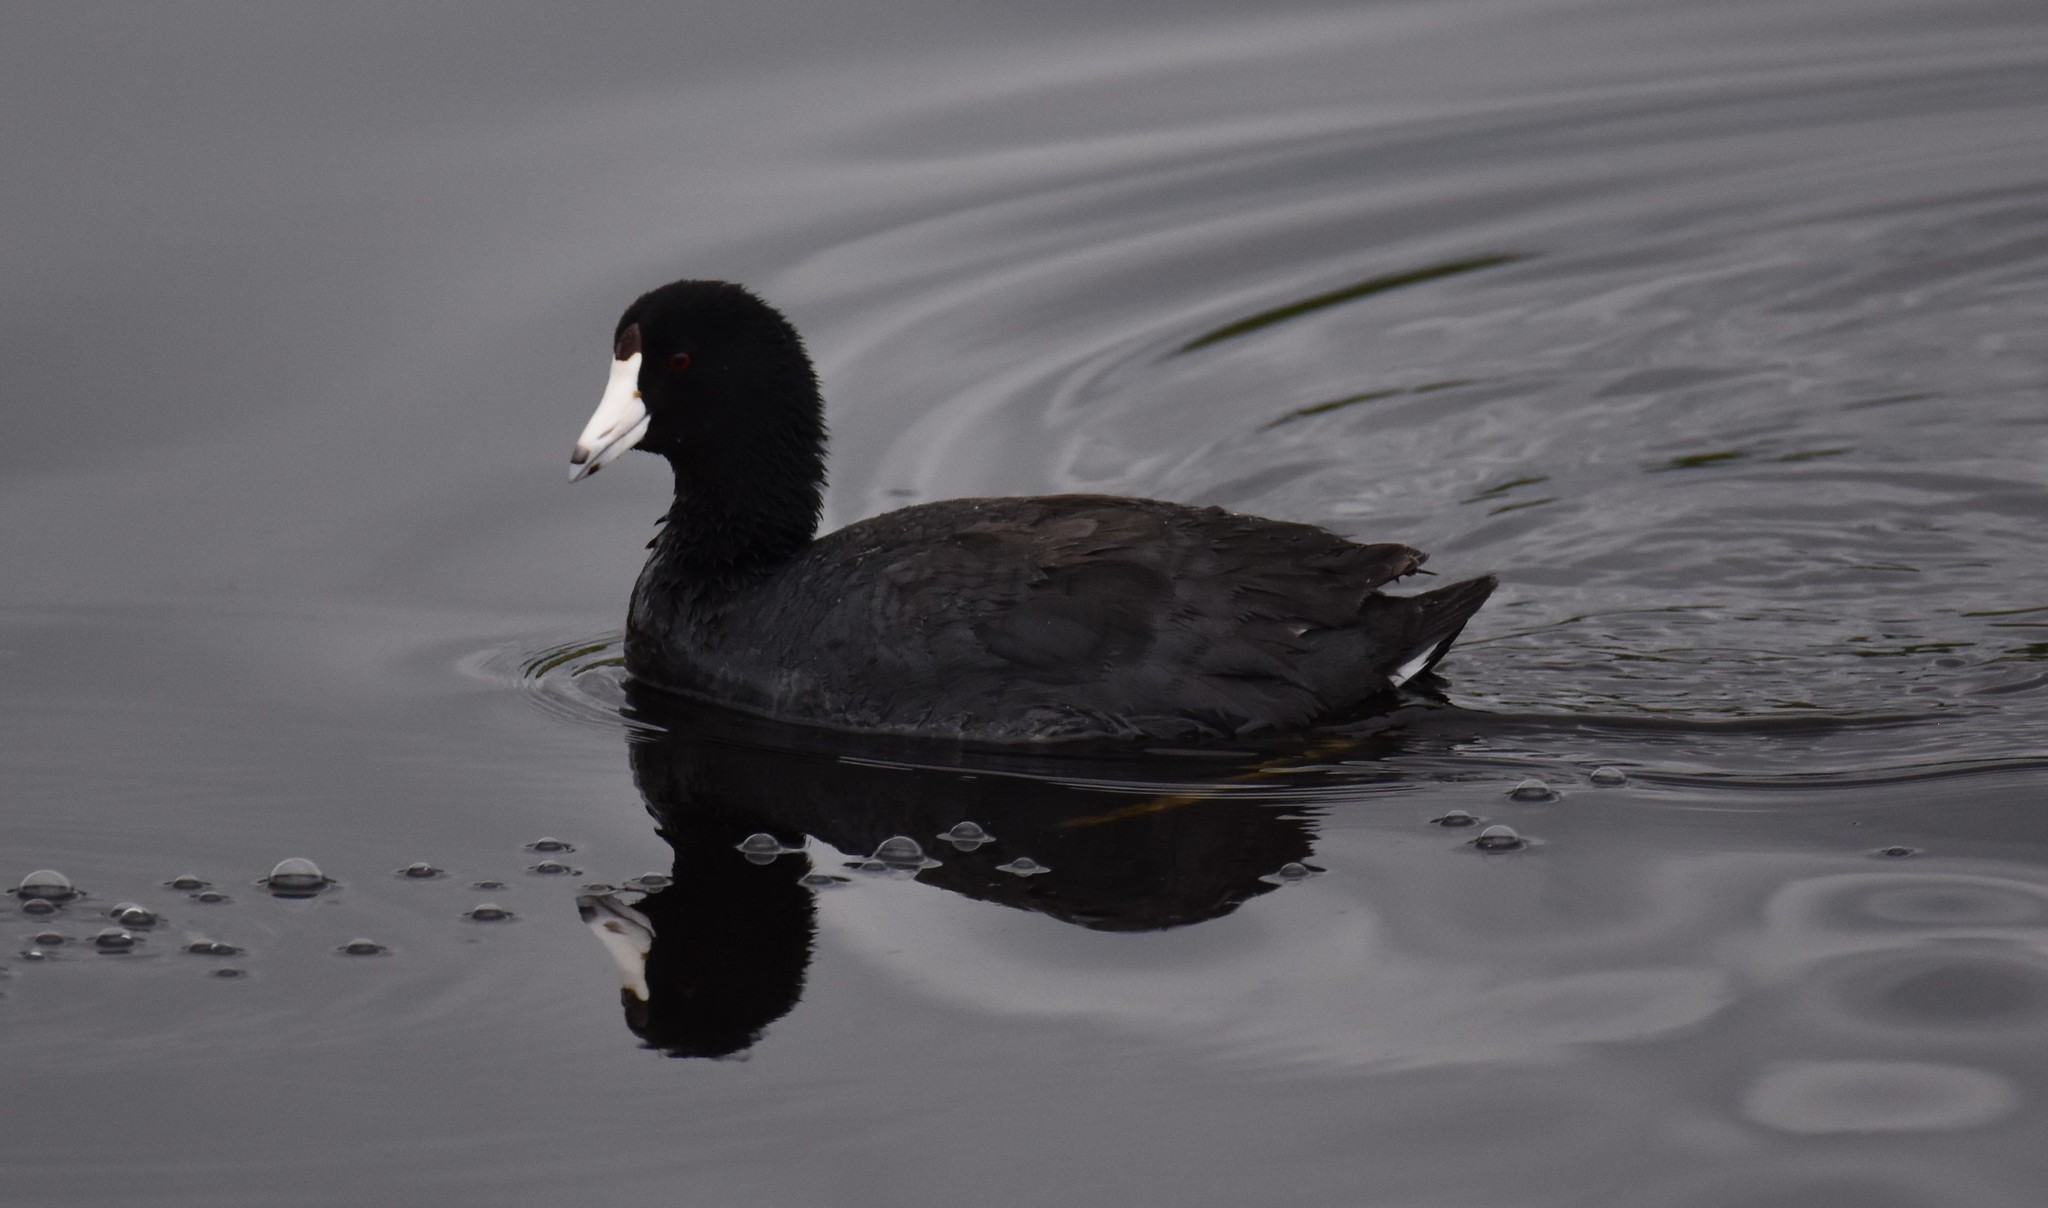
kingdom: Animalia
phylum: Chordata
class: Aves
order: Gruiformes
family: Rallidae
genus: Fulica
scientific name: Fulica americana
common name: American coot
